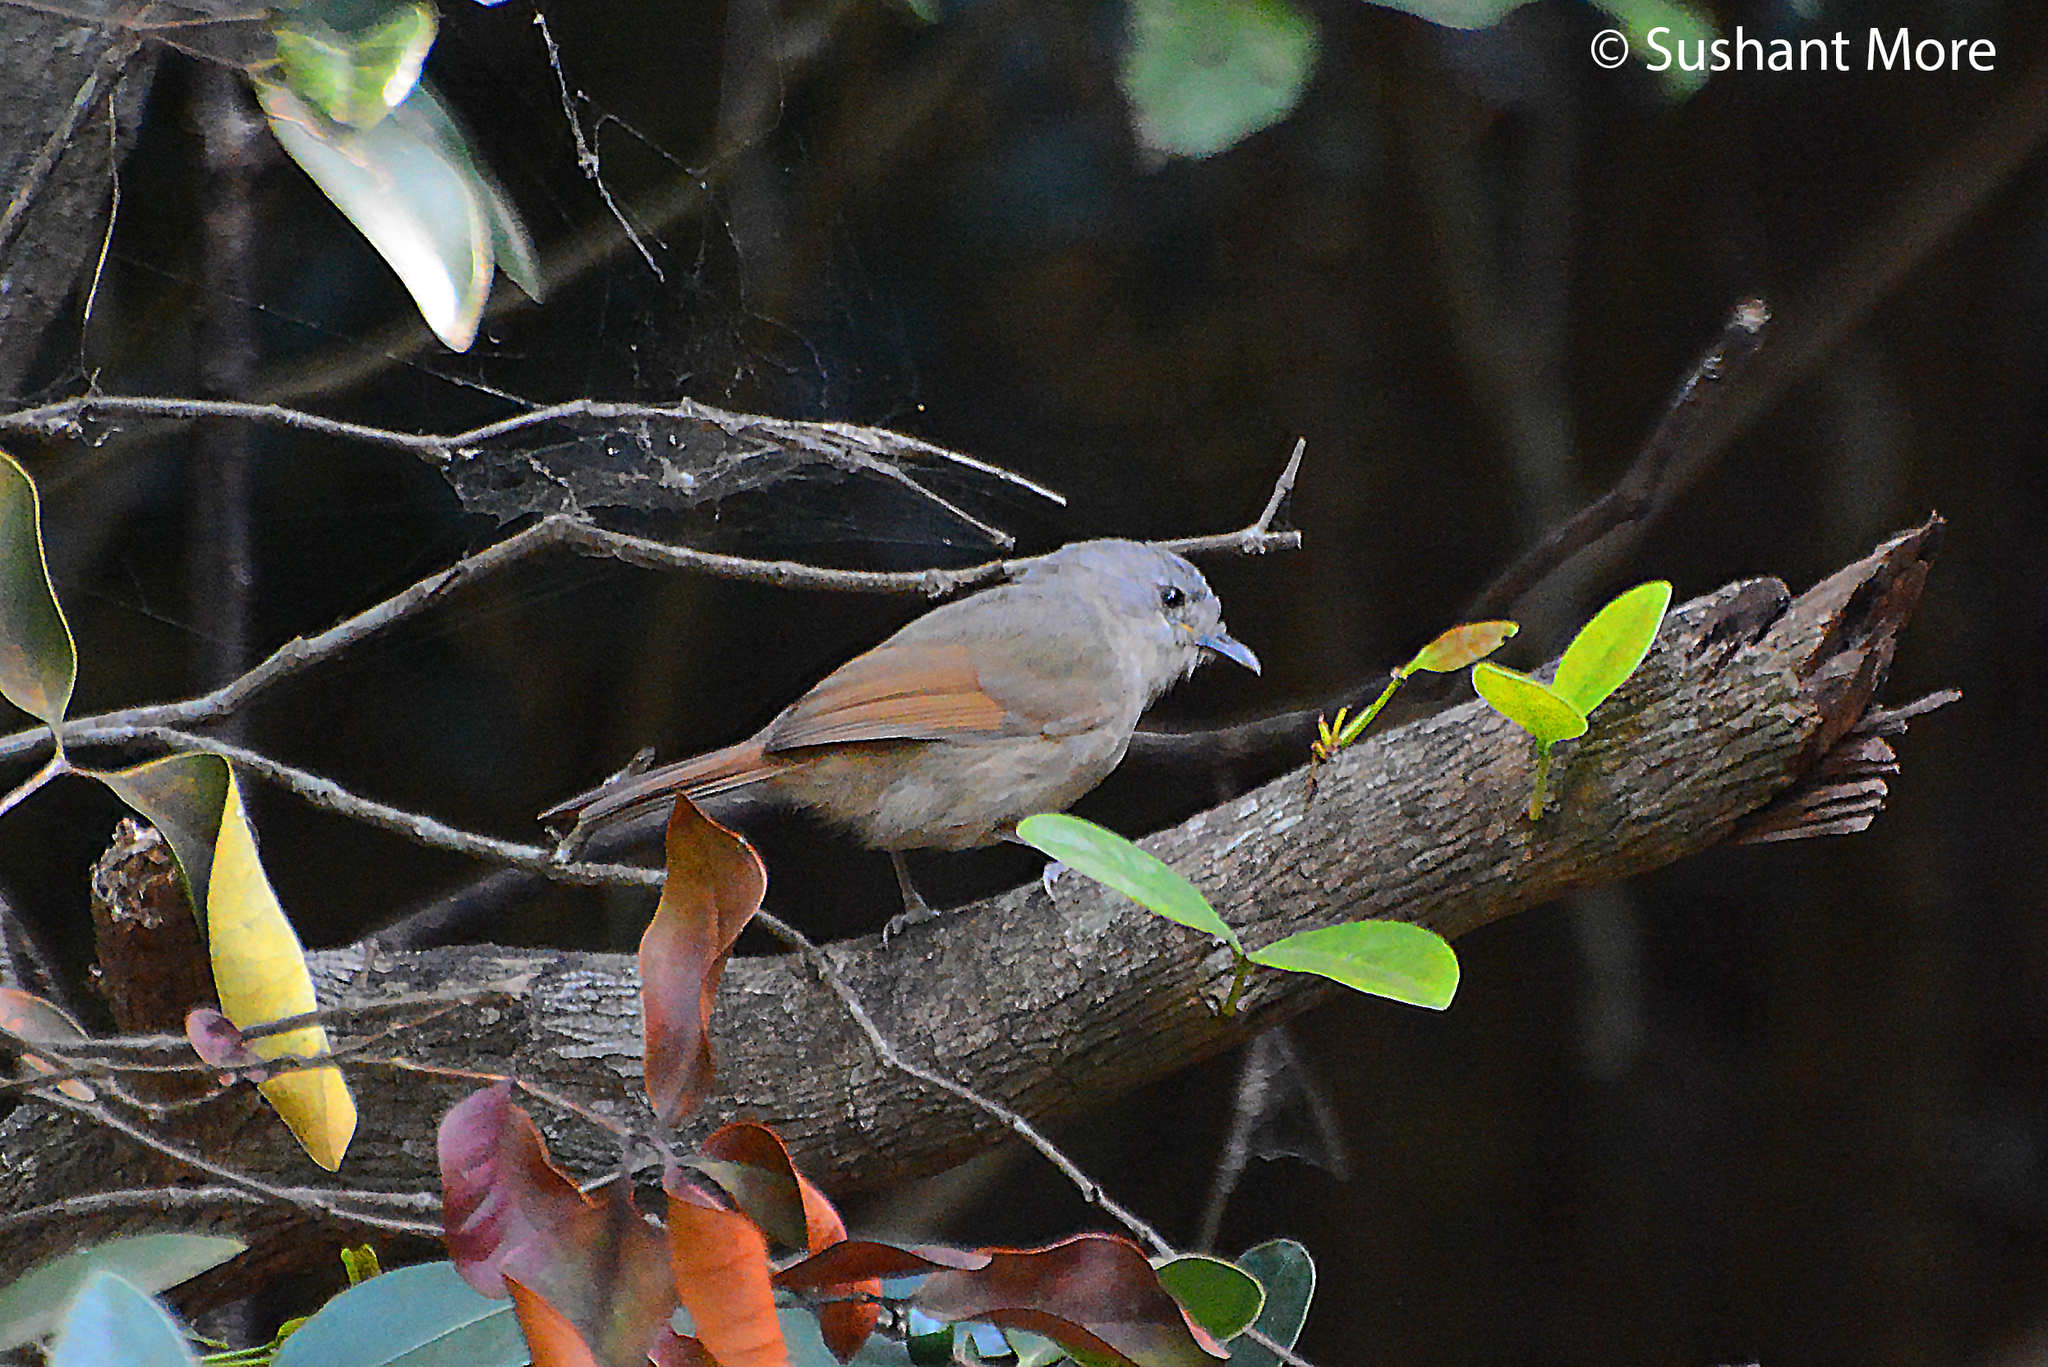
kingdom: Animalia
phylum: Chordata
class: Aves
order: Passeriformes
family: Pellorneidae
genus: Alcippe
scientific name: Alcippe poioicephala
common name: Brown-cheeked fulvetta
